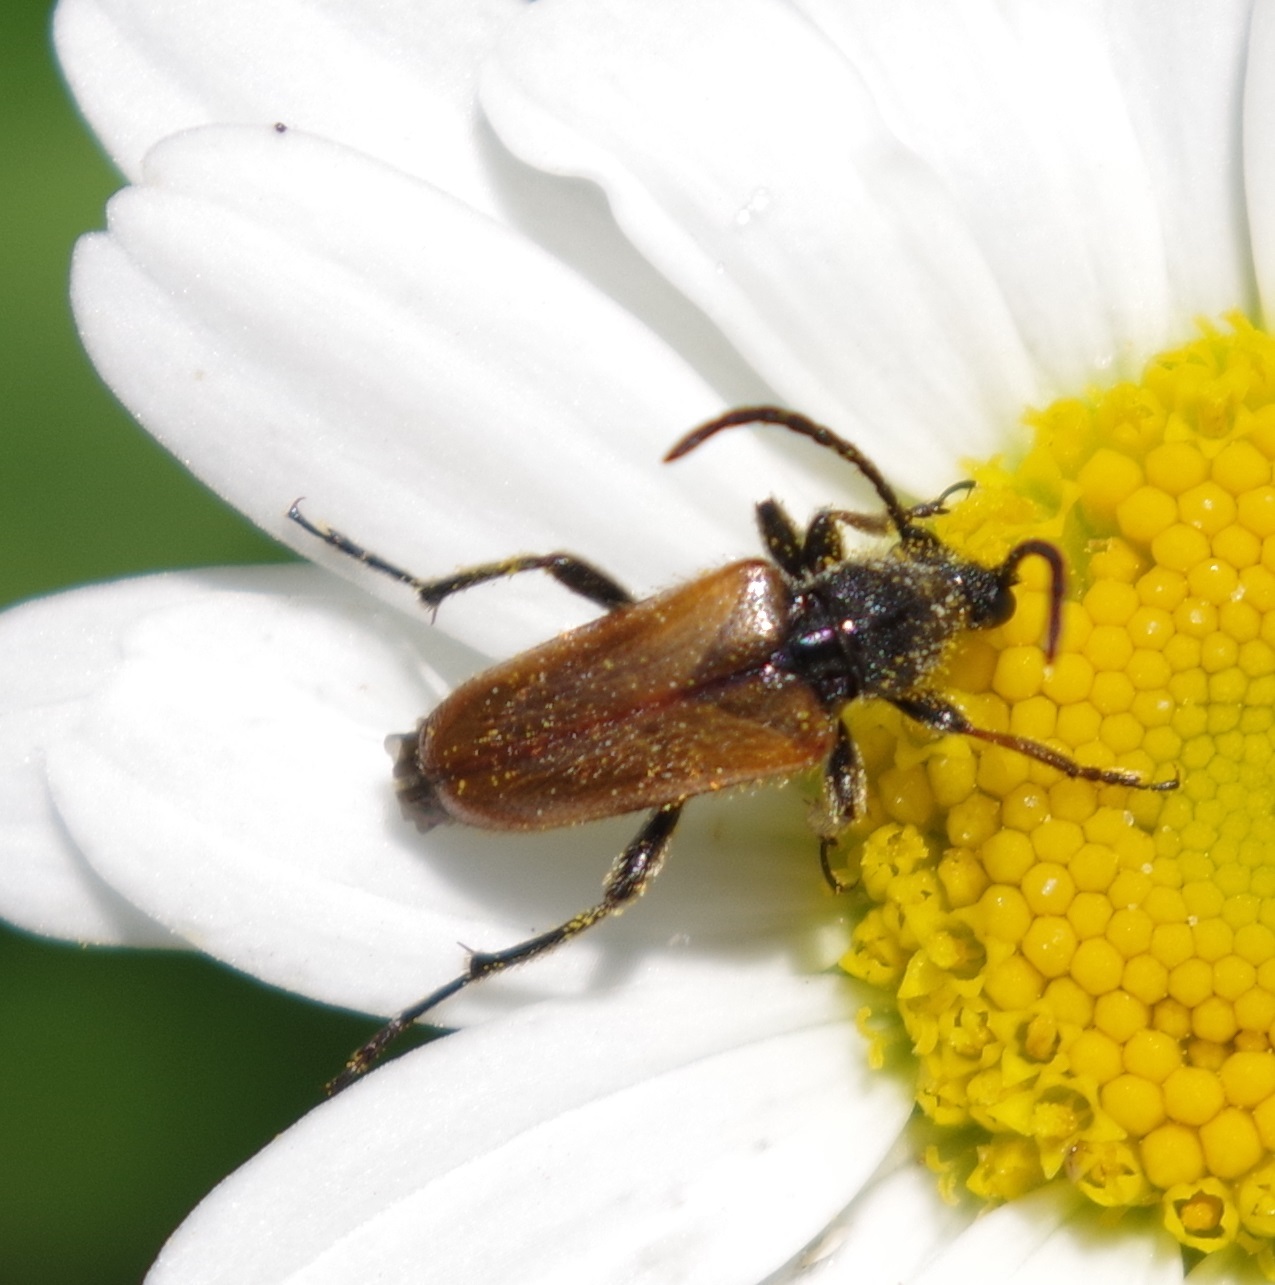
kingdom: Animalia
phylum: Arthropoda
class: Insecta
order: Coleoptera
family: Cerambycidae
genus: Pseudovadonia
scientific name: Pseudovadonia livida
